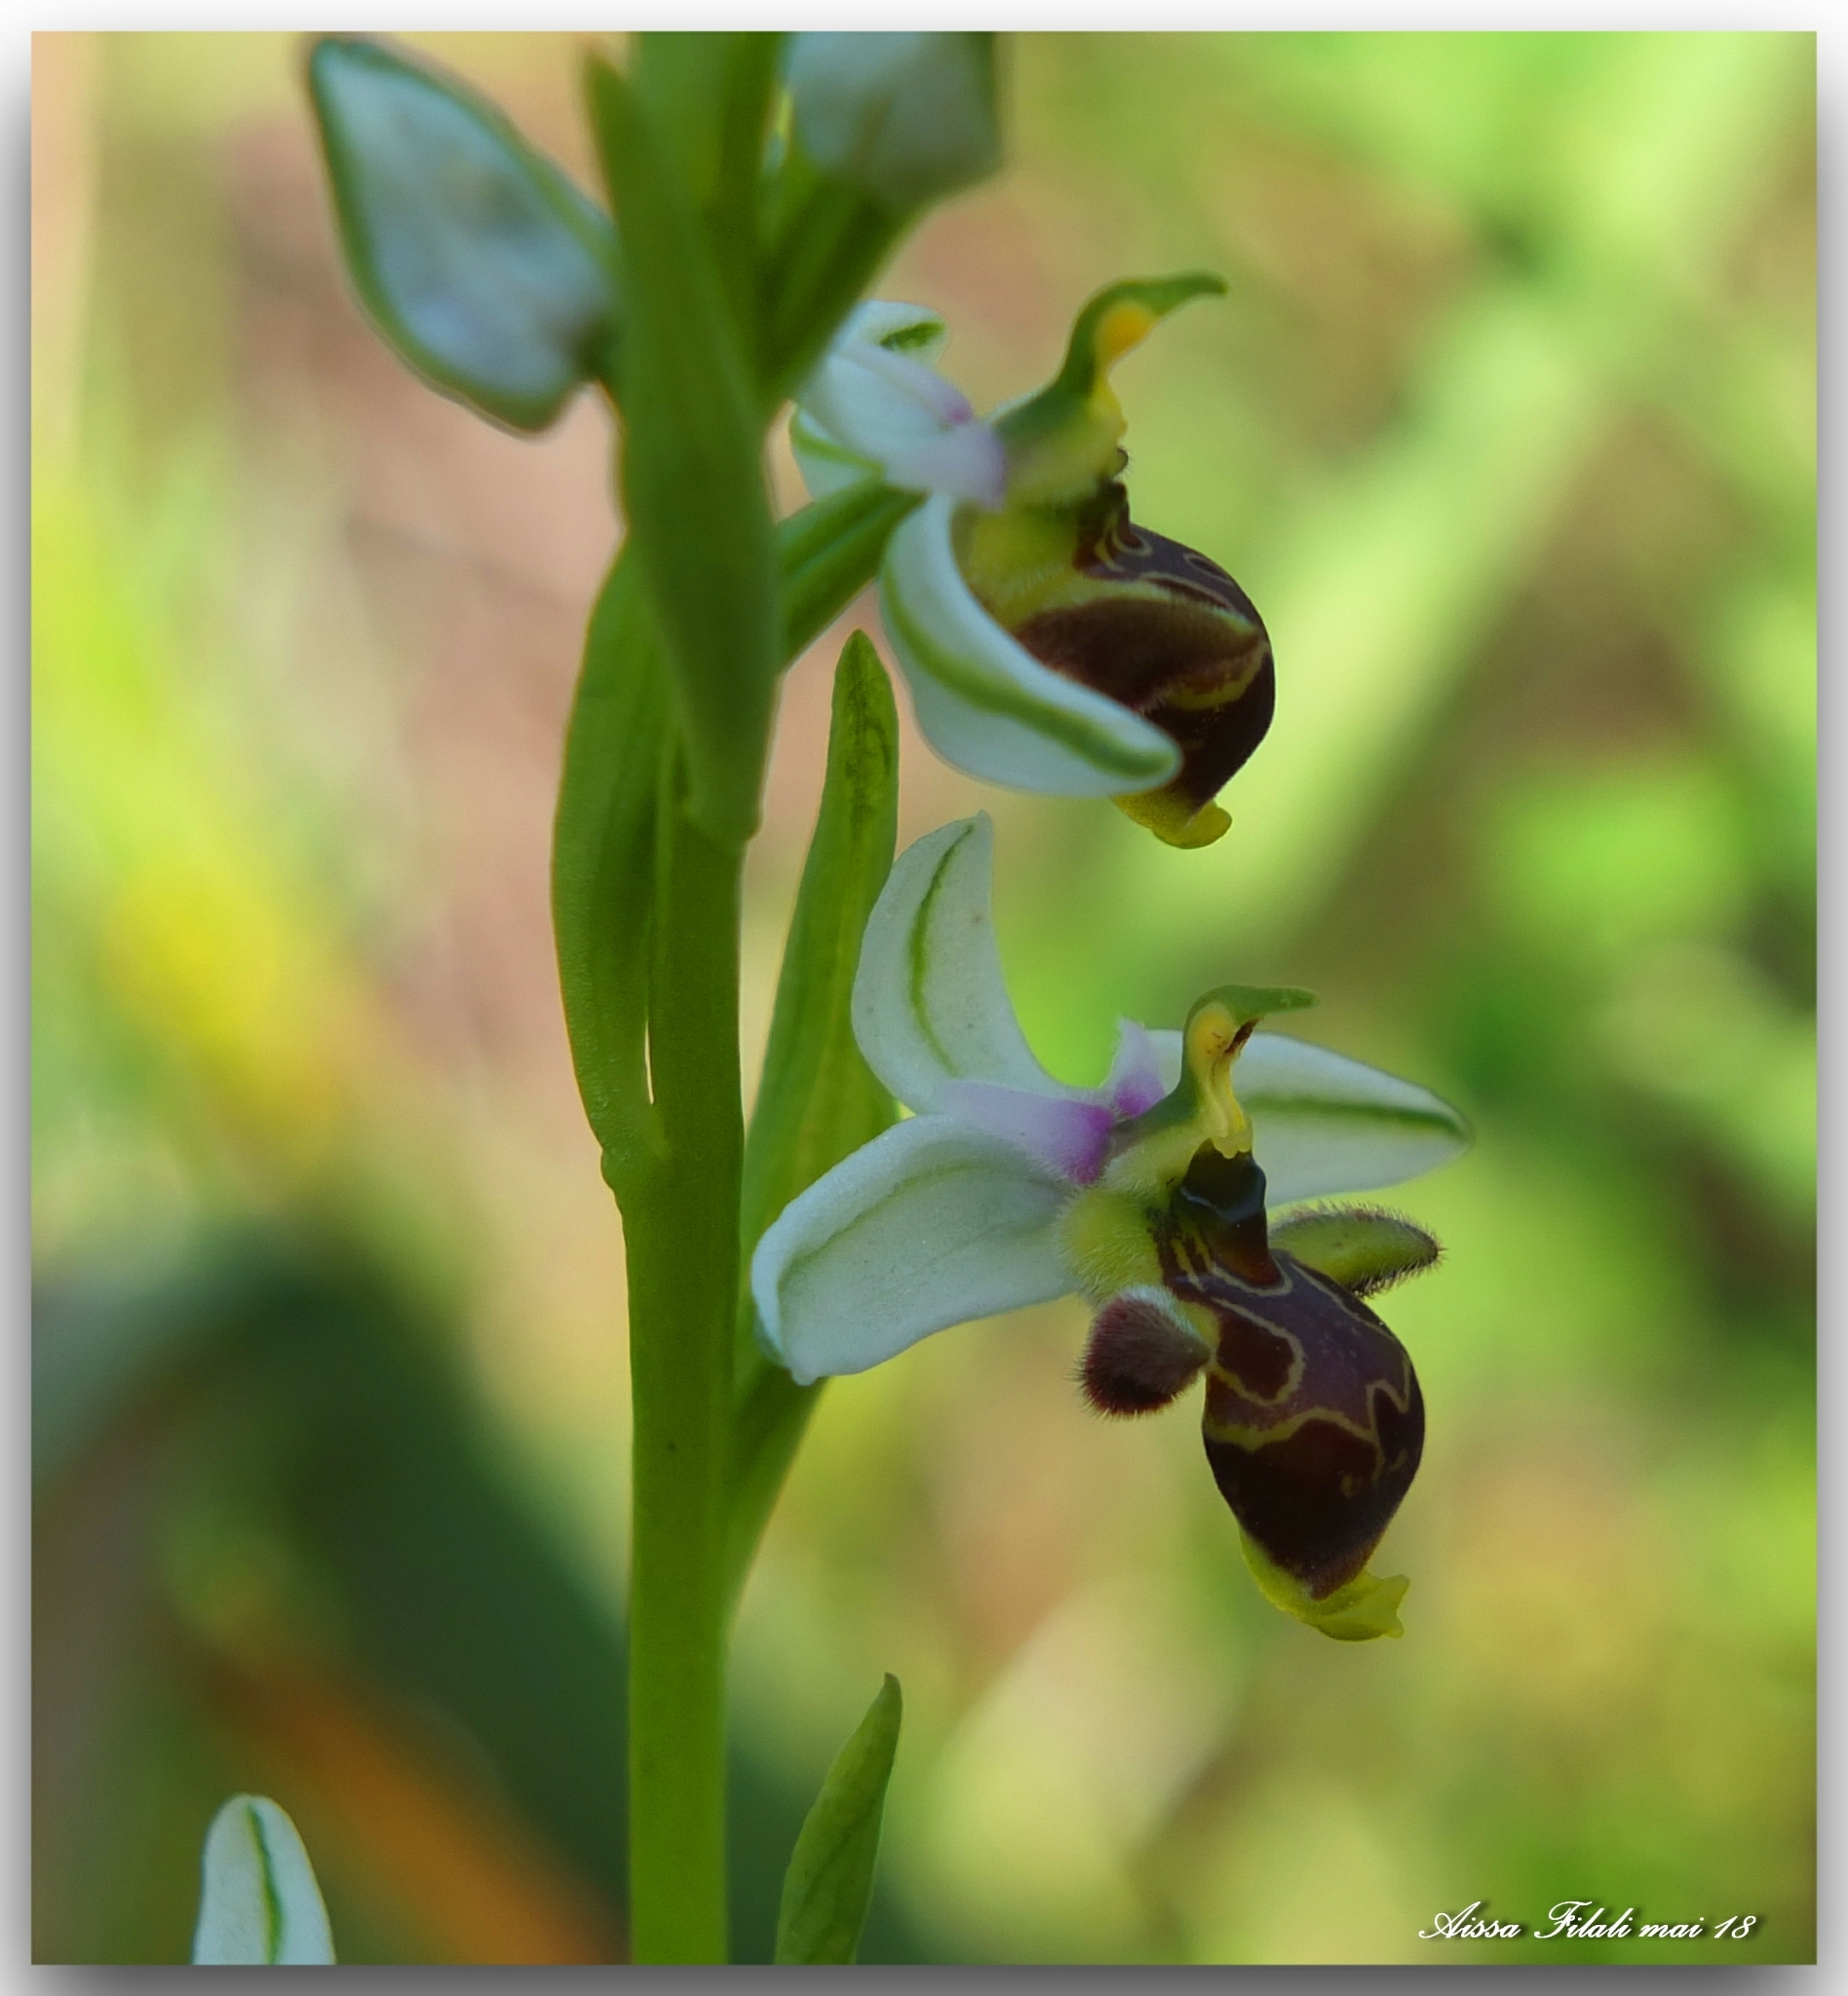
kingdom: Plantae
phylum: Tracheophyta
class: Liliopsida
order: Asparagales
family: Orchidaceae
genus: Ophrys
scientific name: Ophrys scolopax
